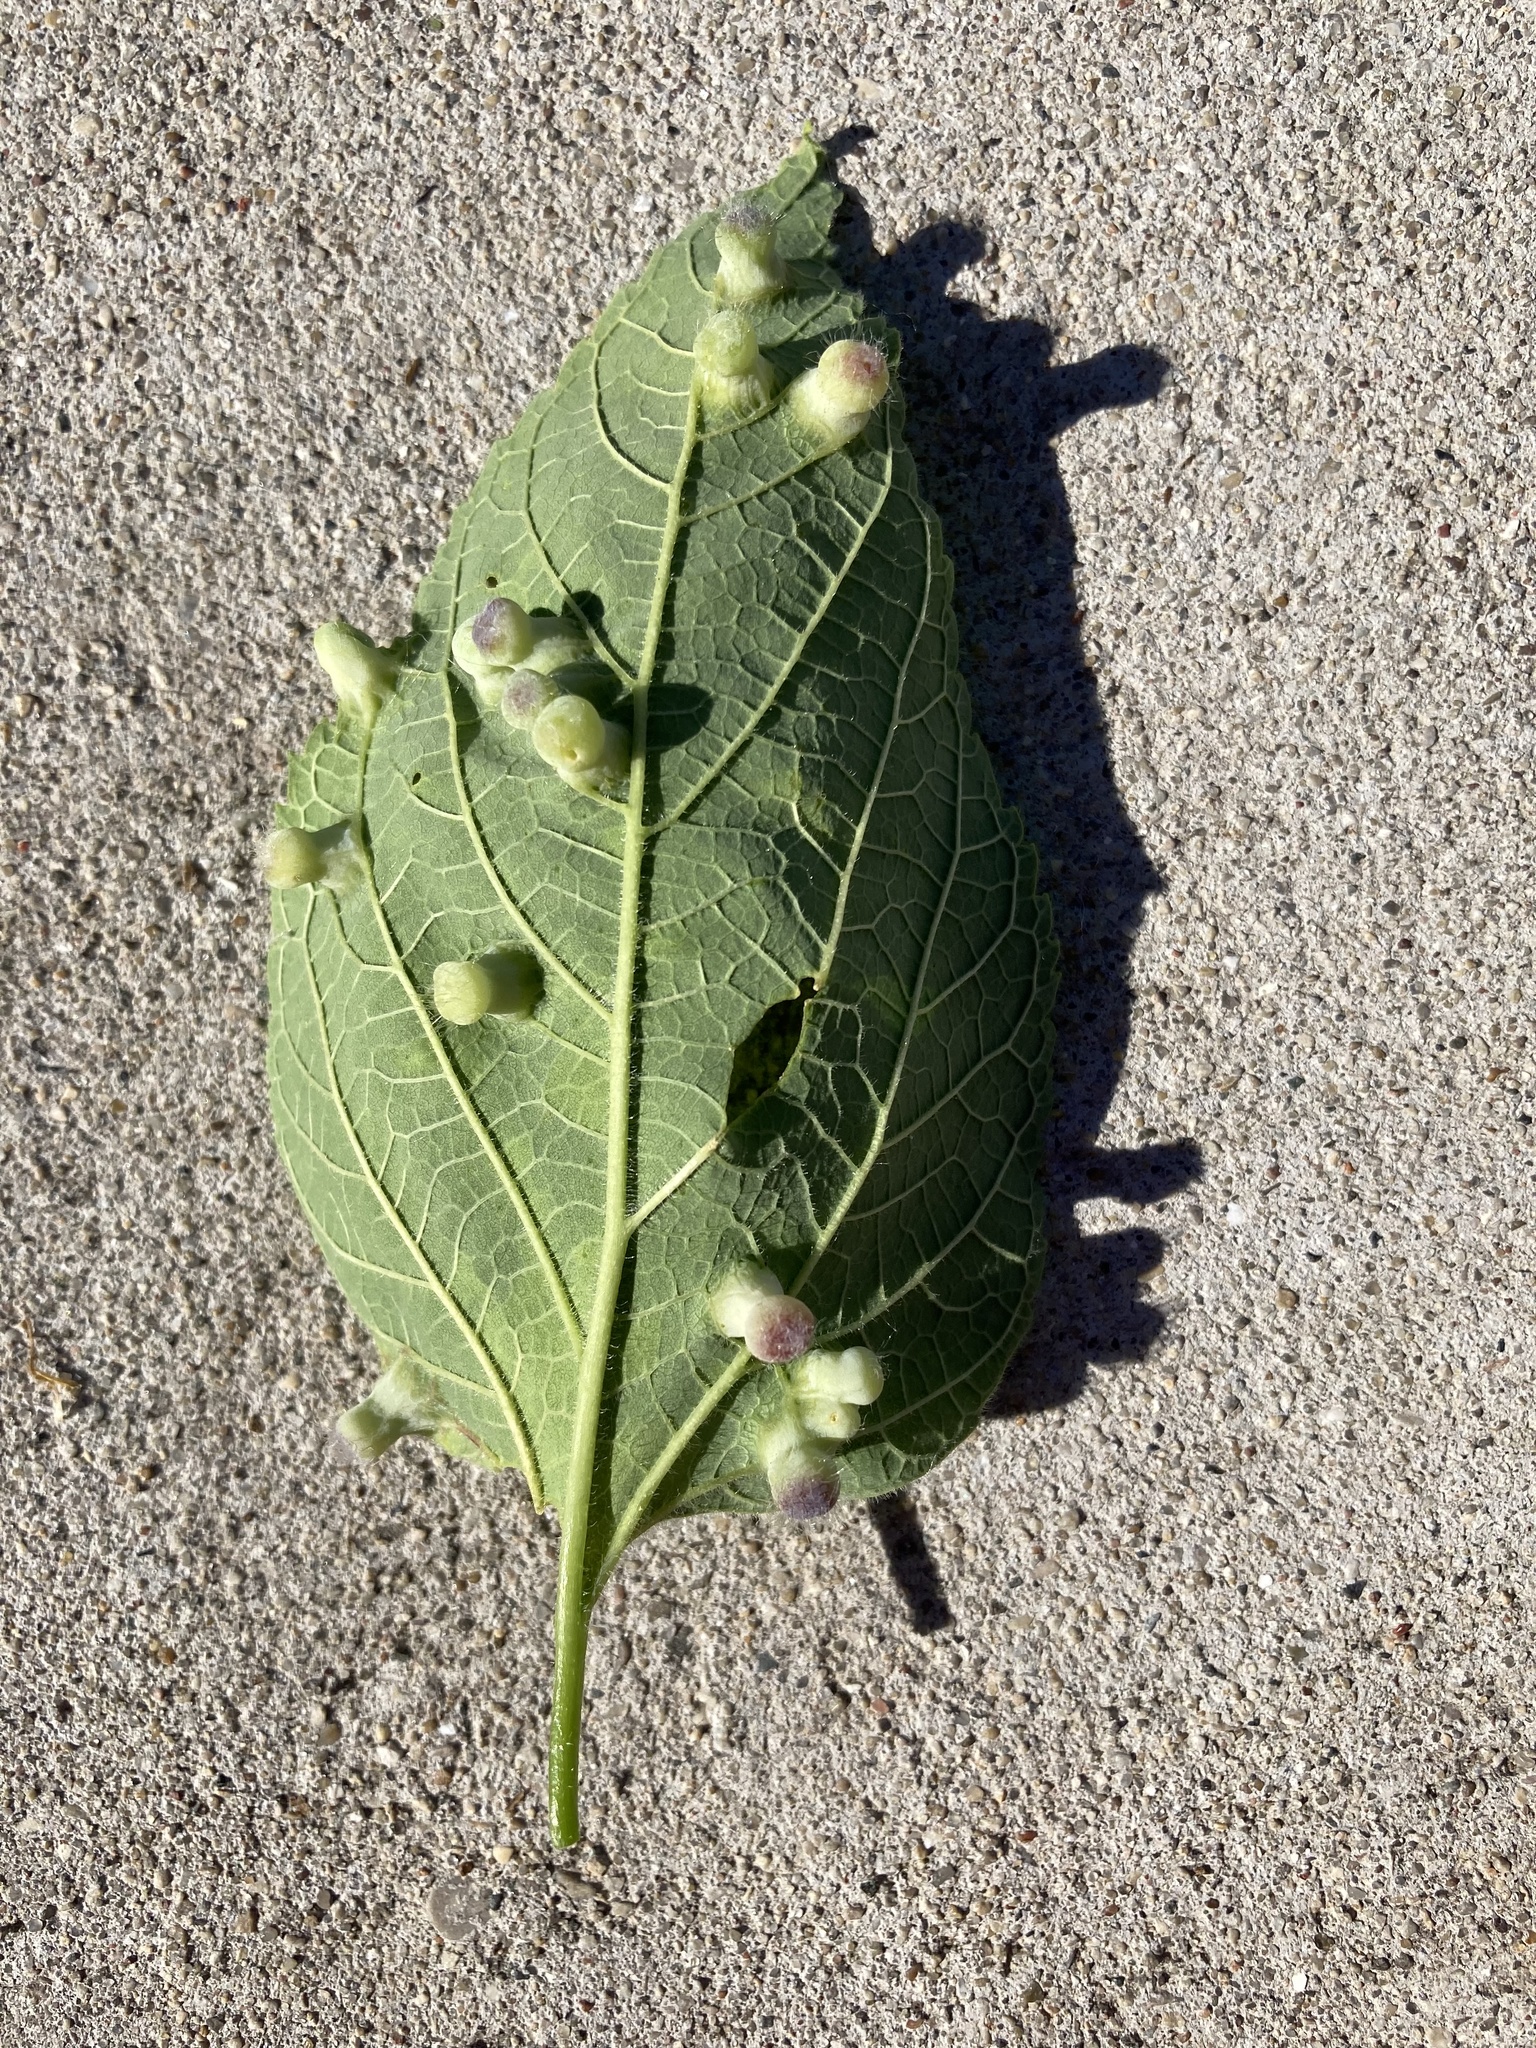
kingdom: Animalia
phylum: Arthropoda
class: Insecta
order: Hemiptera
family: Aphalaridae
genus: Pachypsylla
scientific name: Pachypsylla celtidismamma
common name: Hackberry nipplegall psyllid
